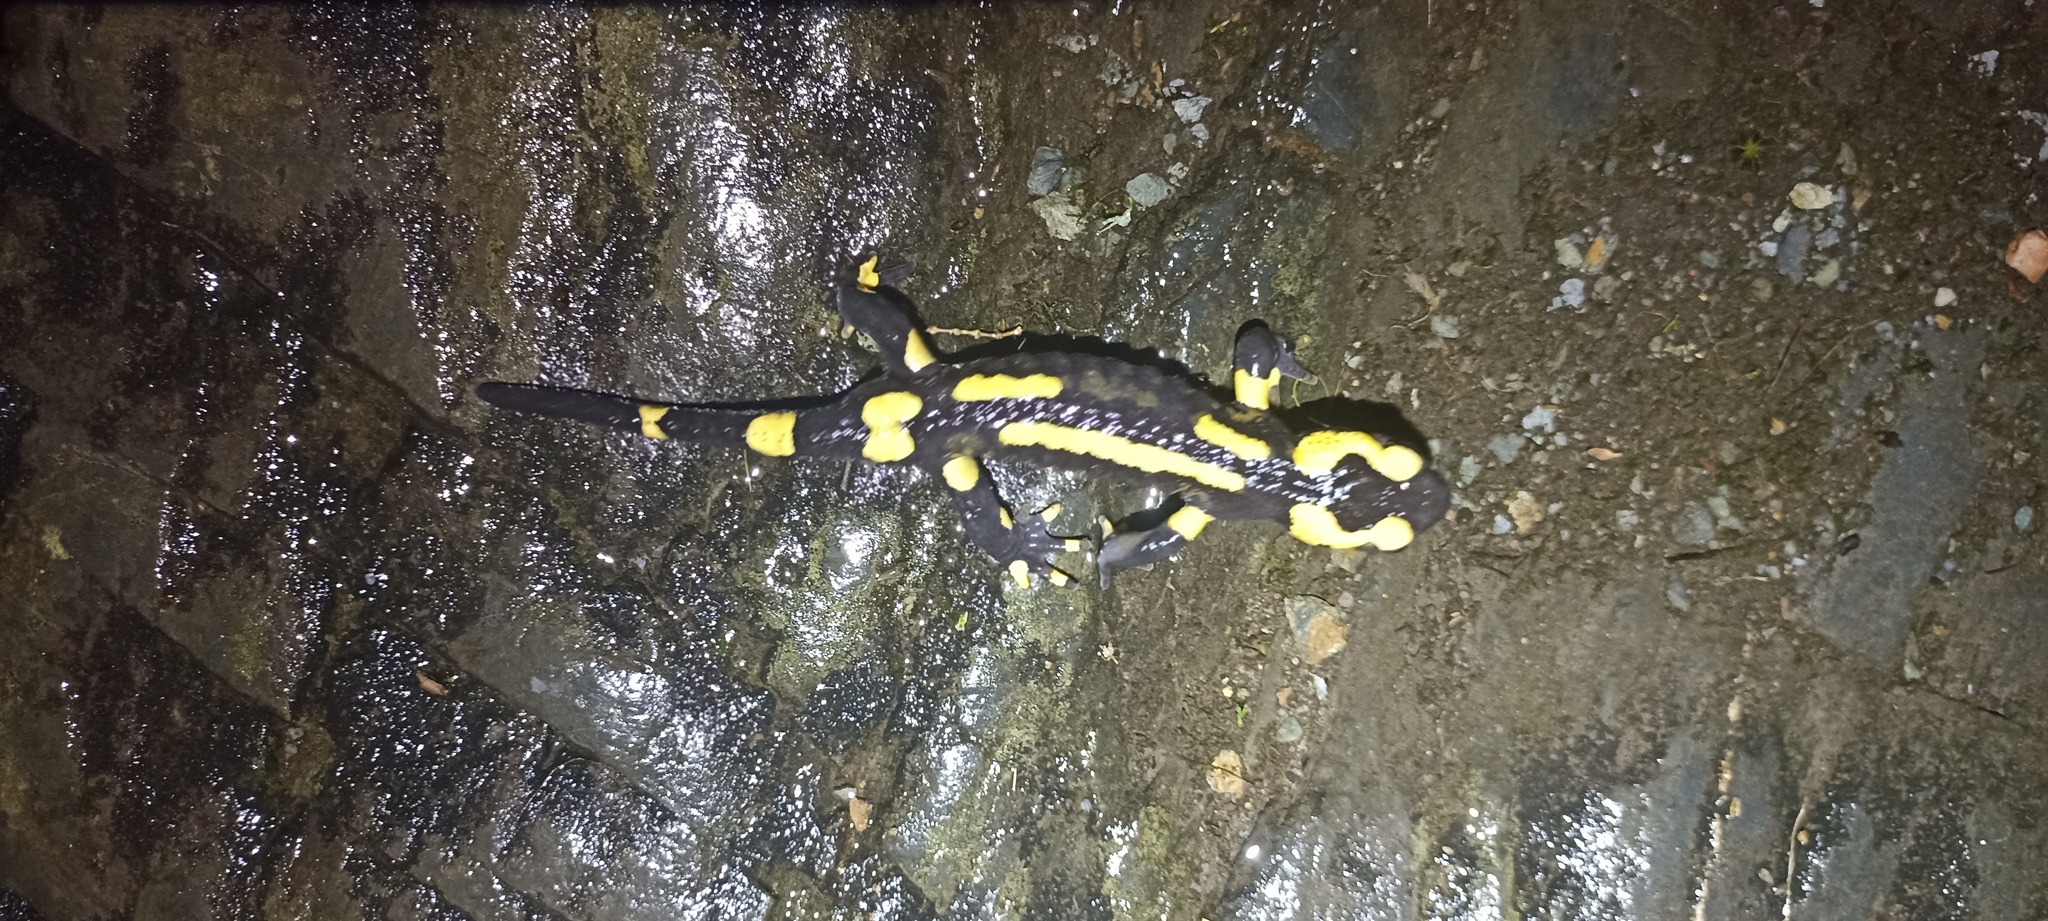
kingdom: Animalia
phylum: Chordata
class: Amphibia
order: Caudata
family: Salamandridae
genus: Salamandra
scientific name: Salamandra salamandra
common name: Fire salamander
